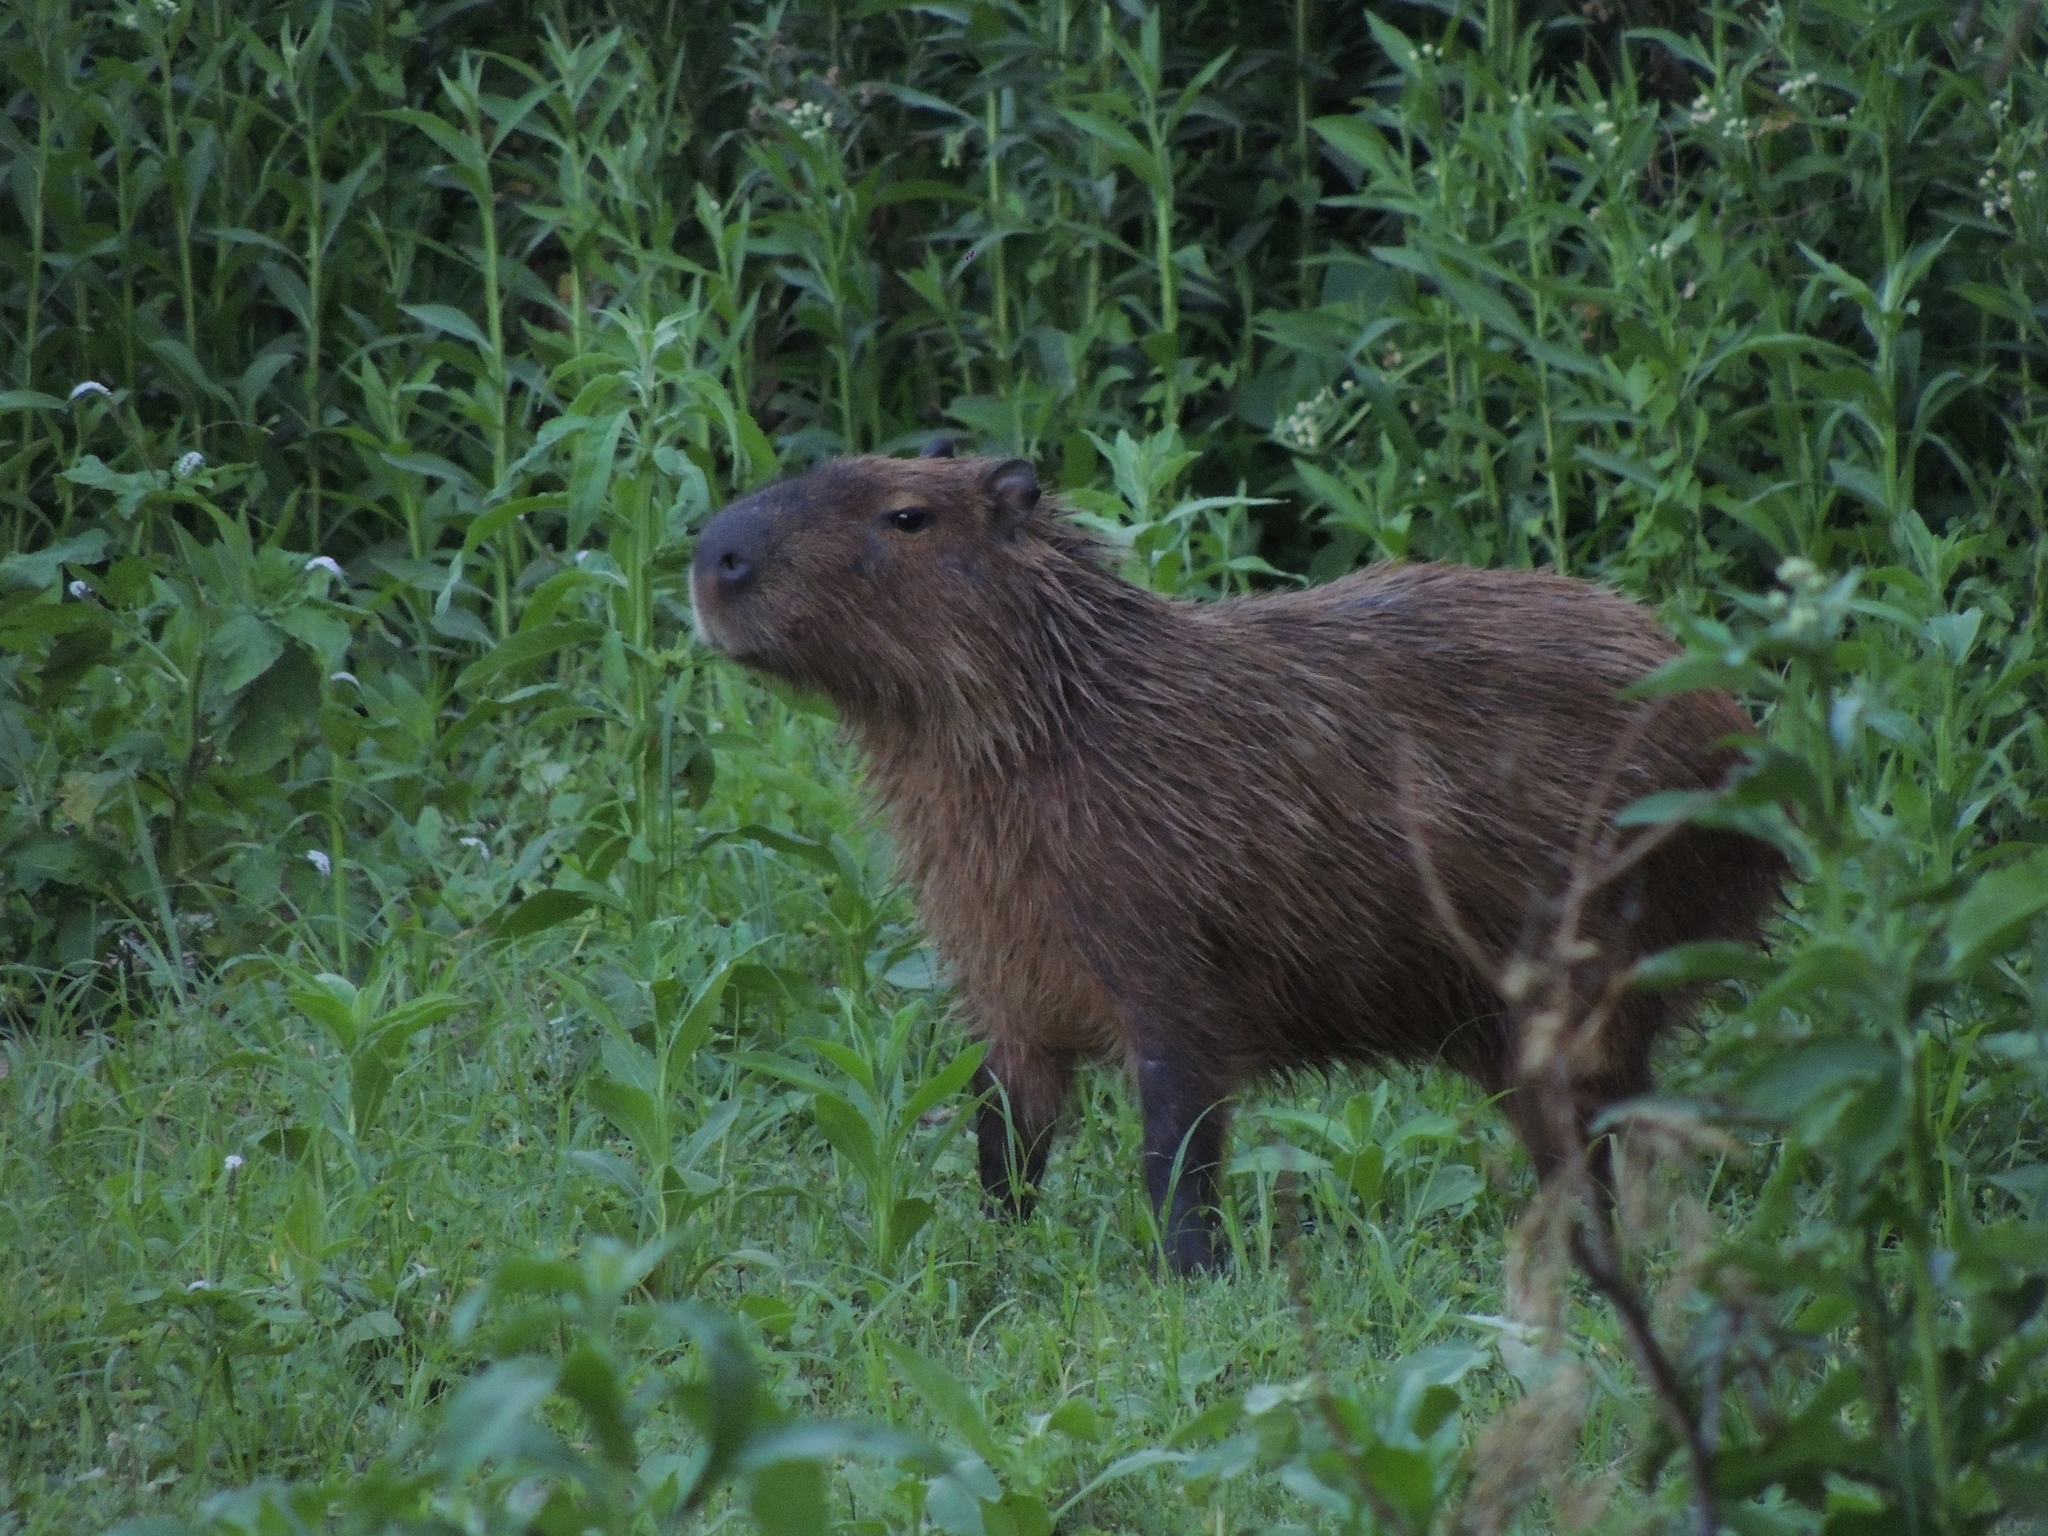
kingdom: Animalia
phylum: Chordata
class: Mammalia
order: Rodentia
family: Caviidae
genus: Hydrochoerus
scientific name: Hydrochoerus hydrochaeris
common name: Capybara
